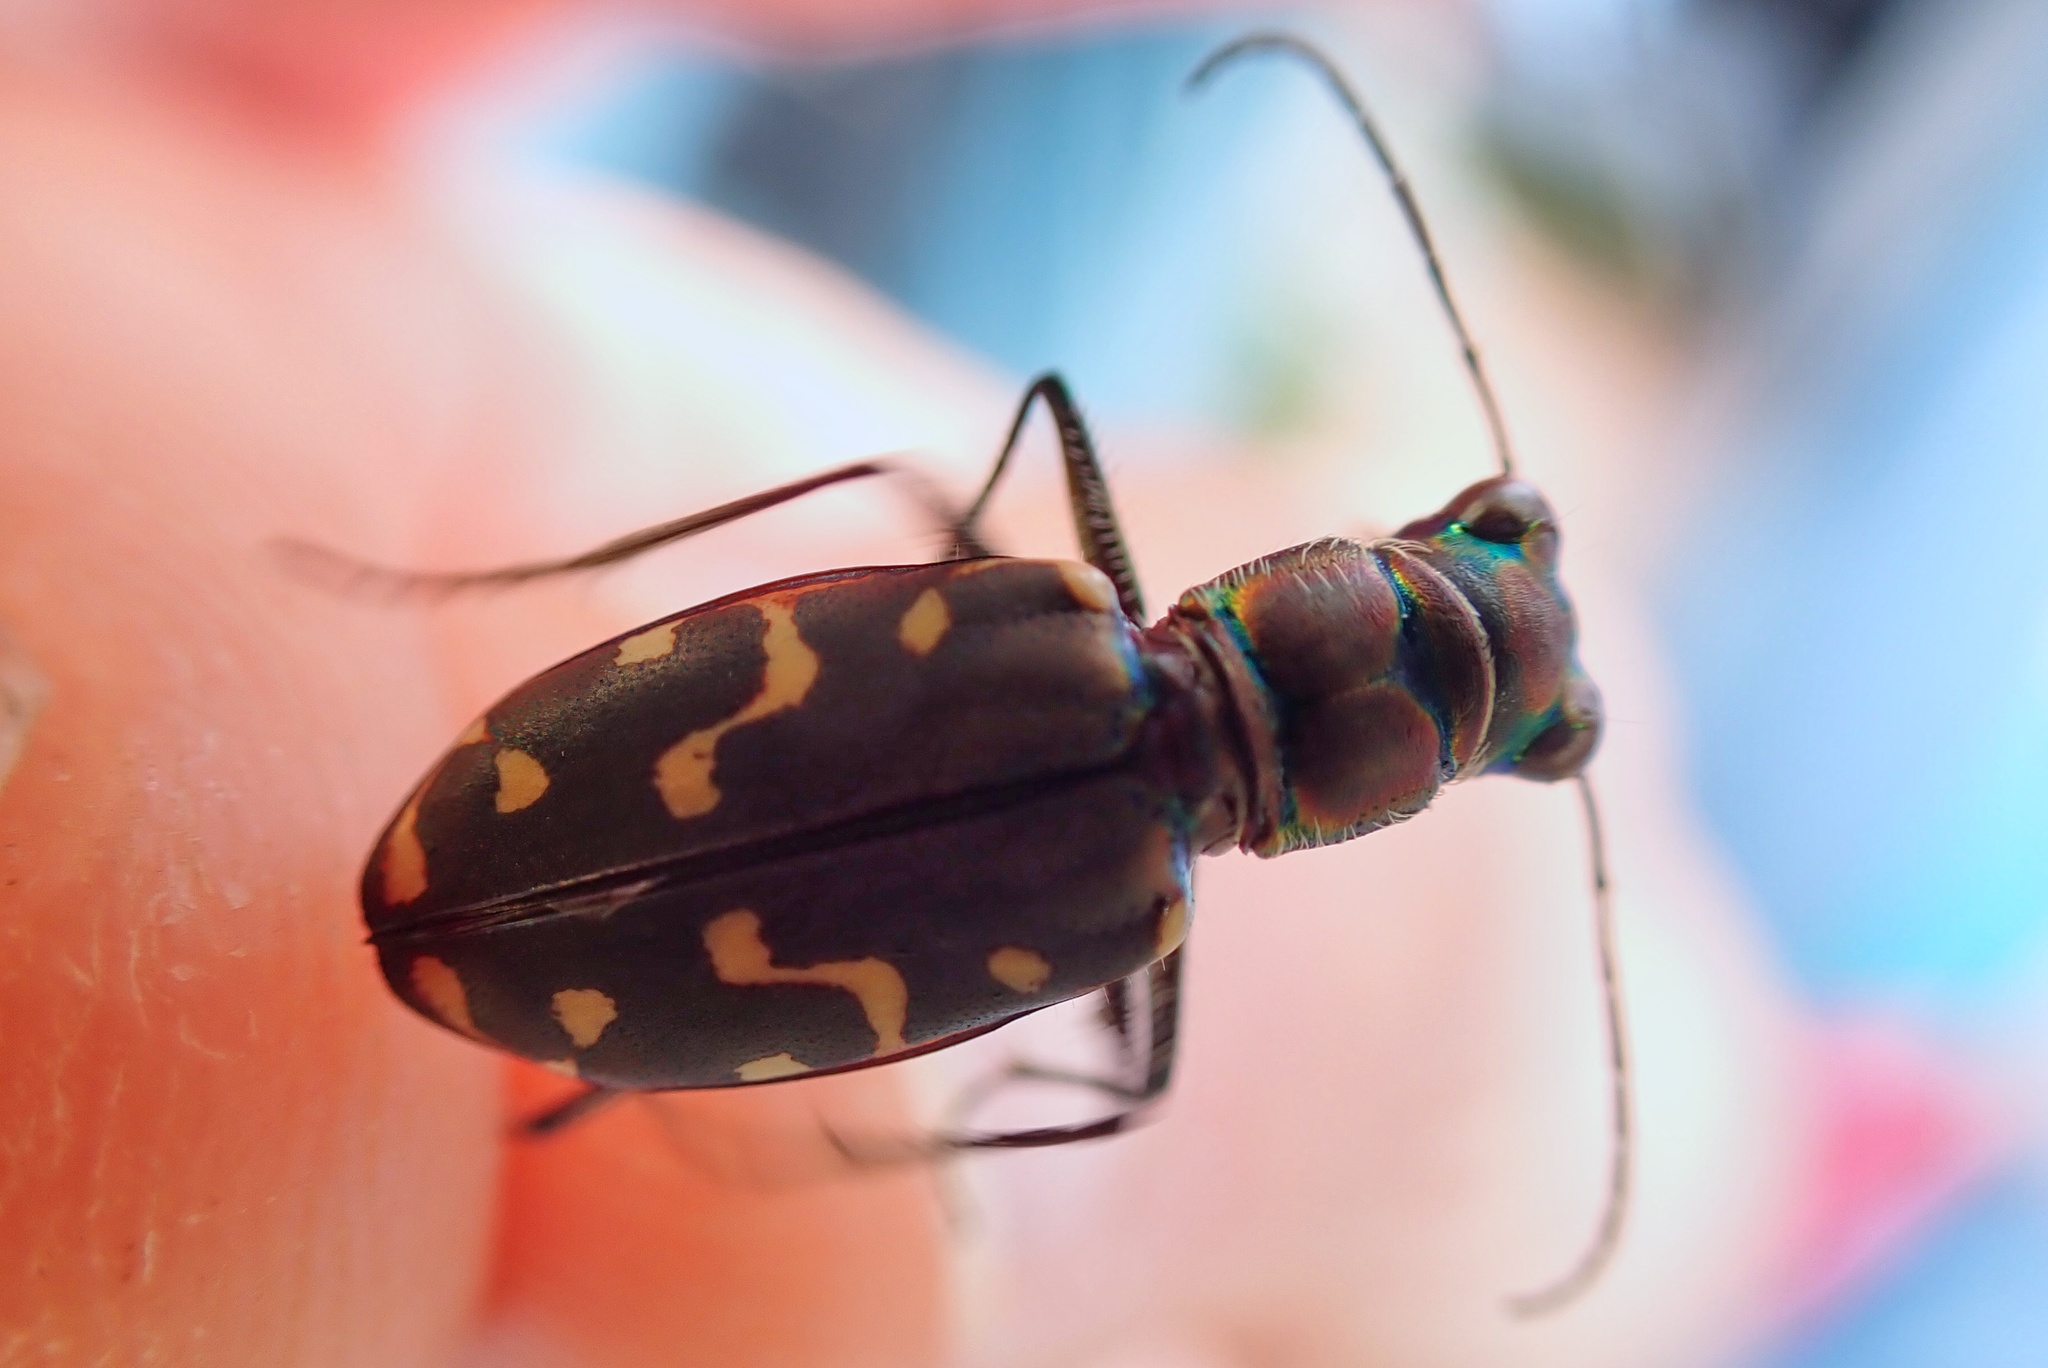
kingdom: Animalia
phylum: Arthropoda
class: Insecta
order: Coleoptera
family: Carabidae
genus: Cicindela
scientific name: Cicindela hemorrhagica
